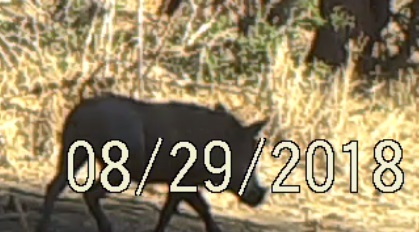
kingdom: Animalia
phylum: Chordata
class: Mammalia
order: Artiodactyla
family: Suidae
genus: Phacochoerus
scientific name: Phacochoerus africanus
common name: Common warthog
